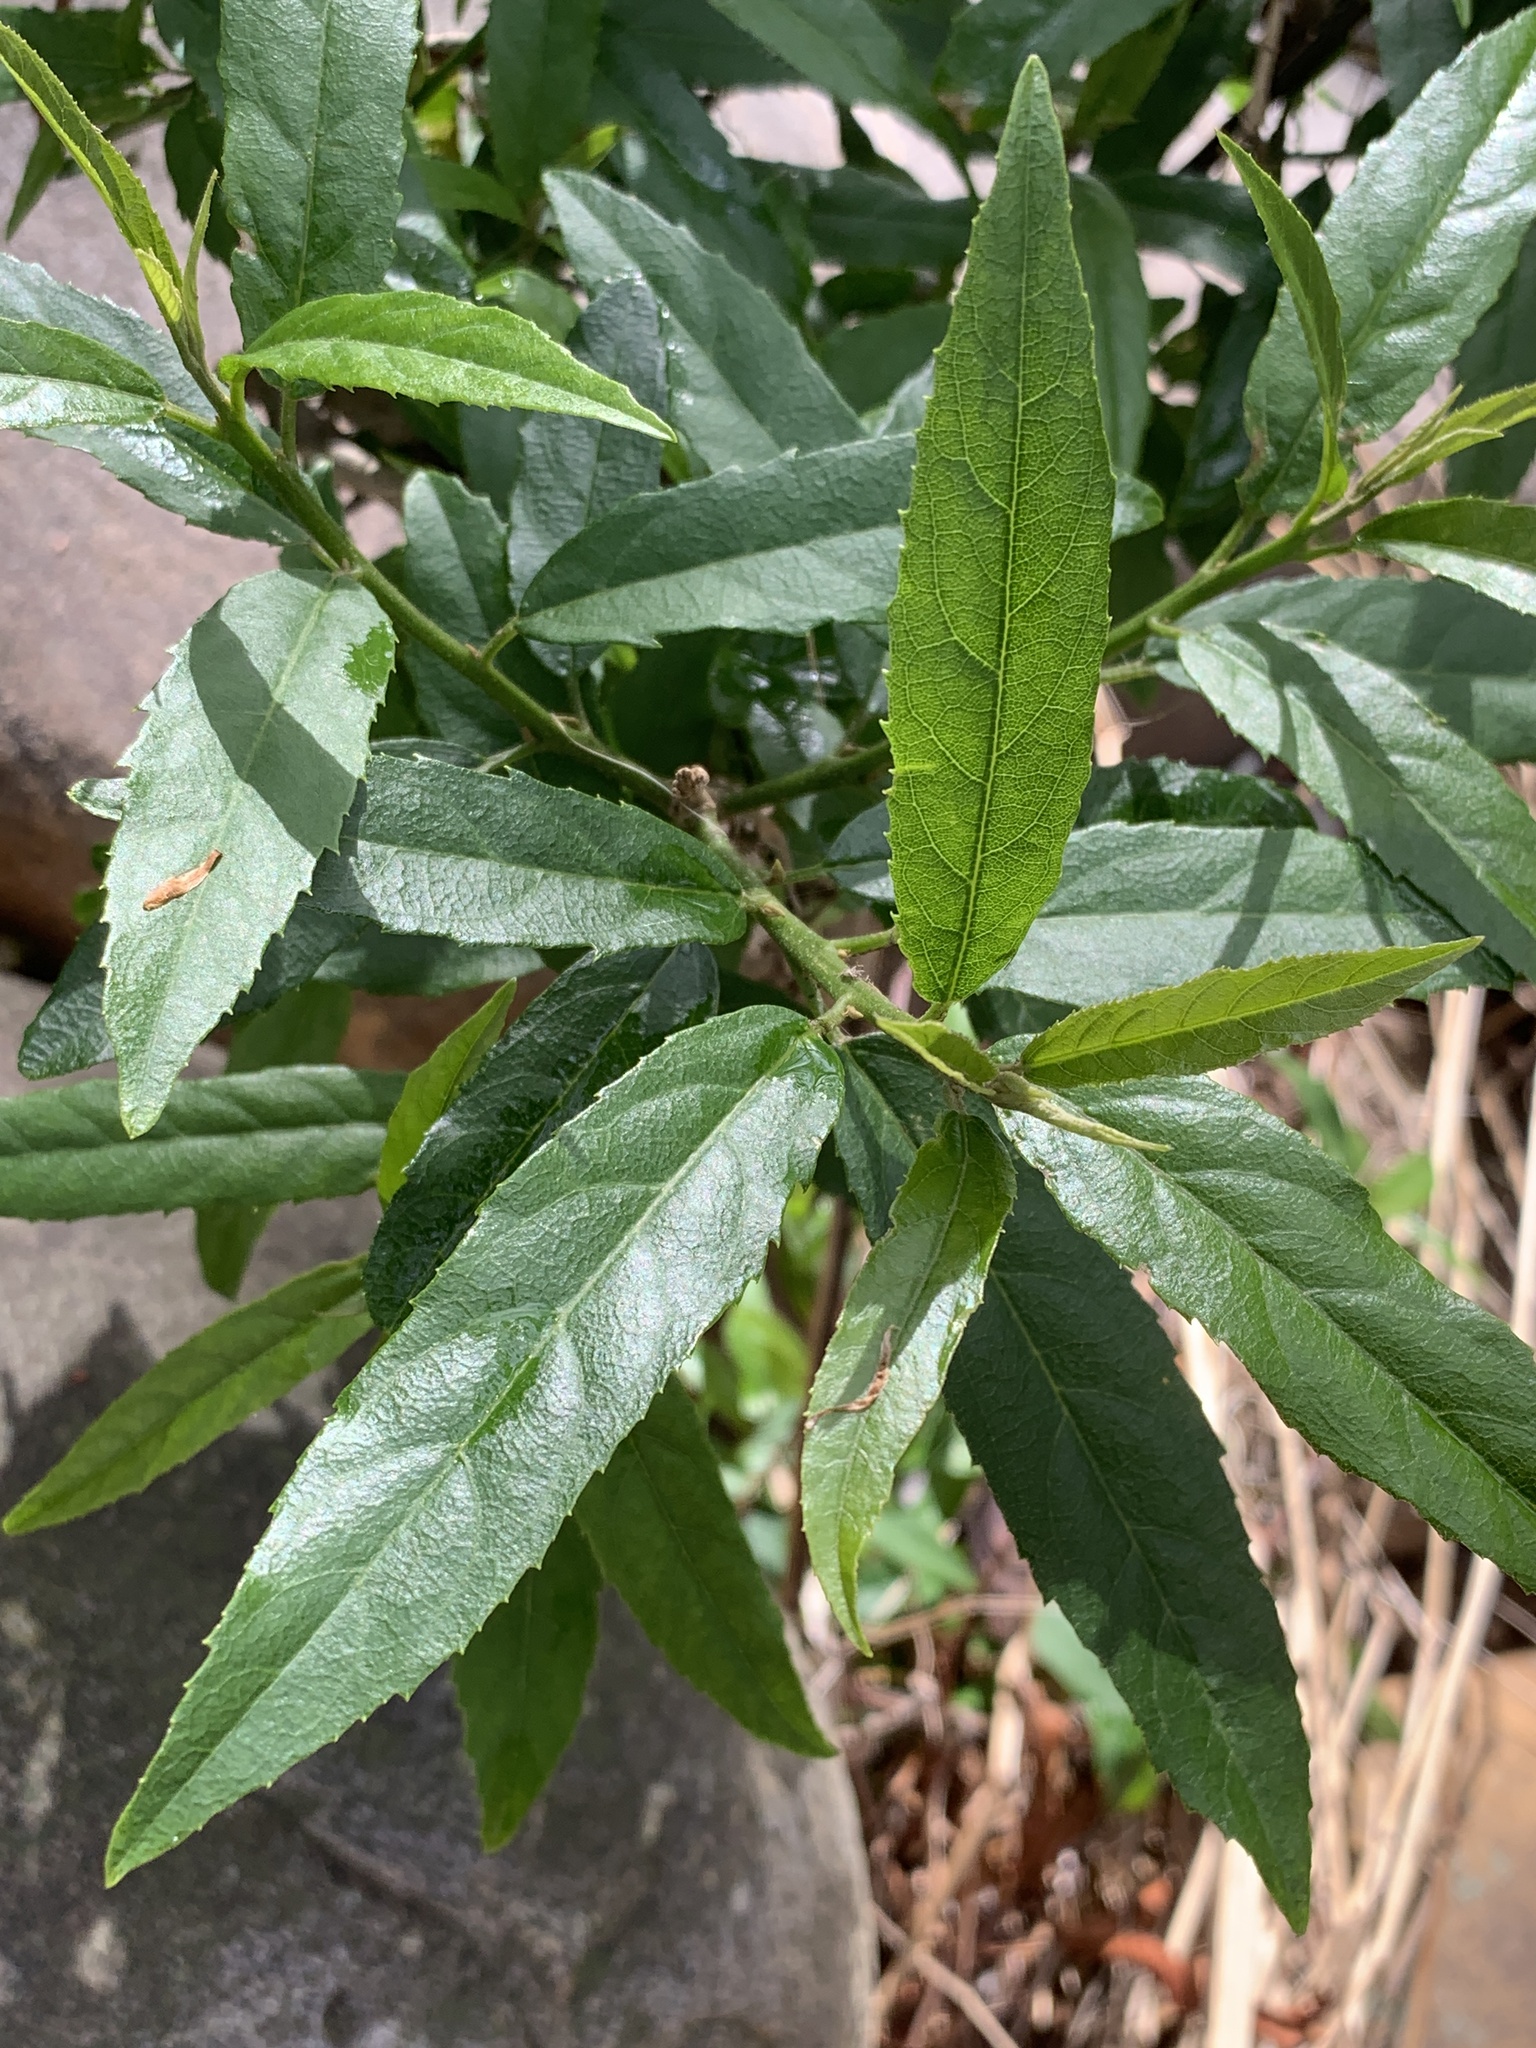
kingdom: Plantae
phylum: Tracheophyta
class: Magnoliopsida
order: Malpighiales
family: Achariaceae
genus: Kiggelaria
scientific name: Kiggelaria africana
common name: Wild peach
